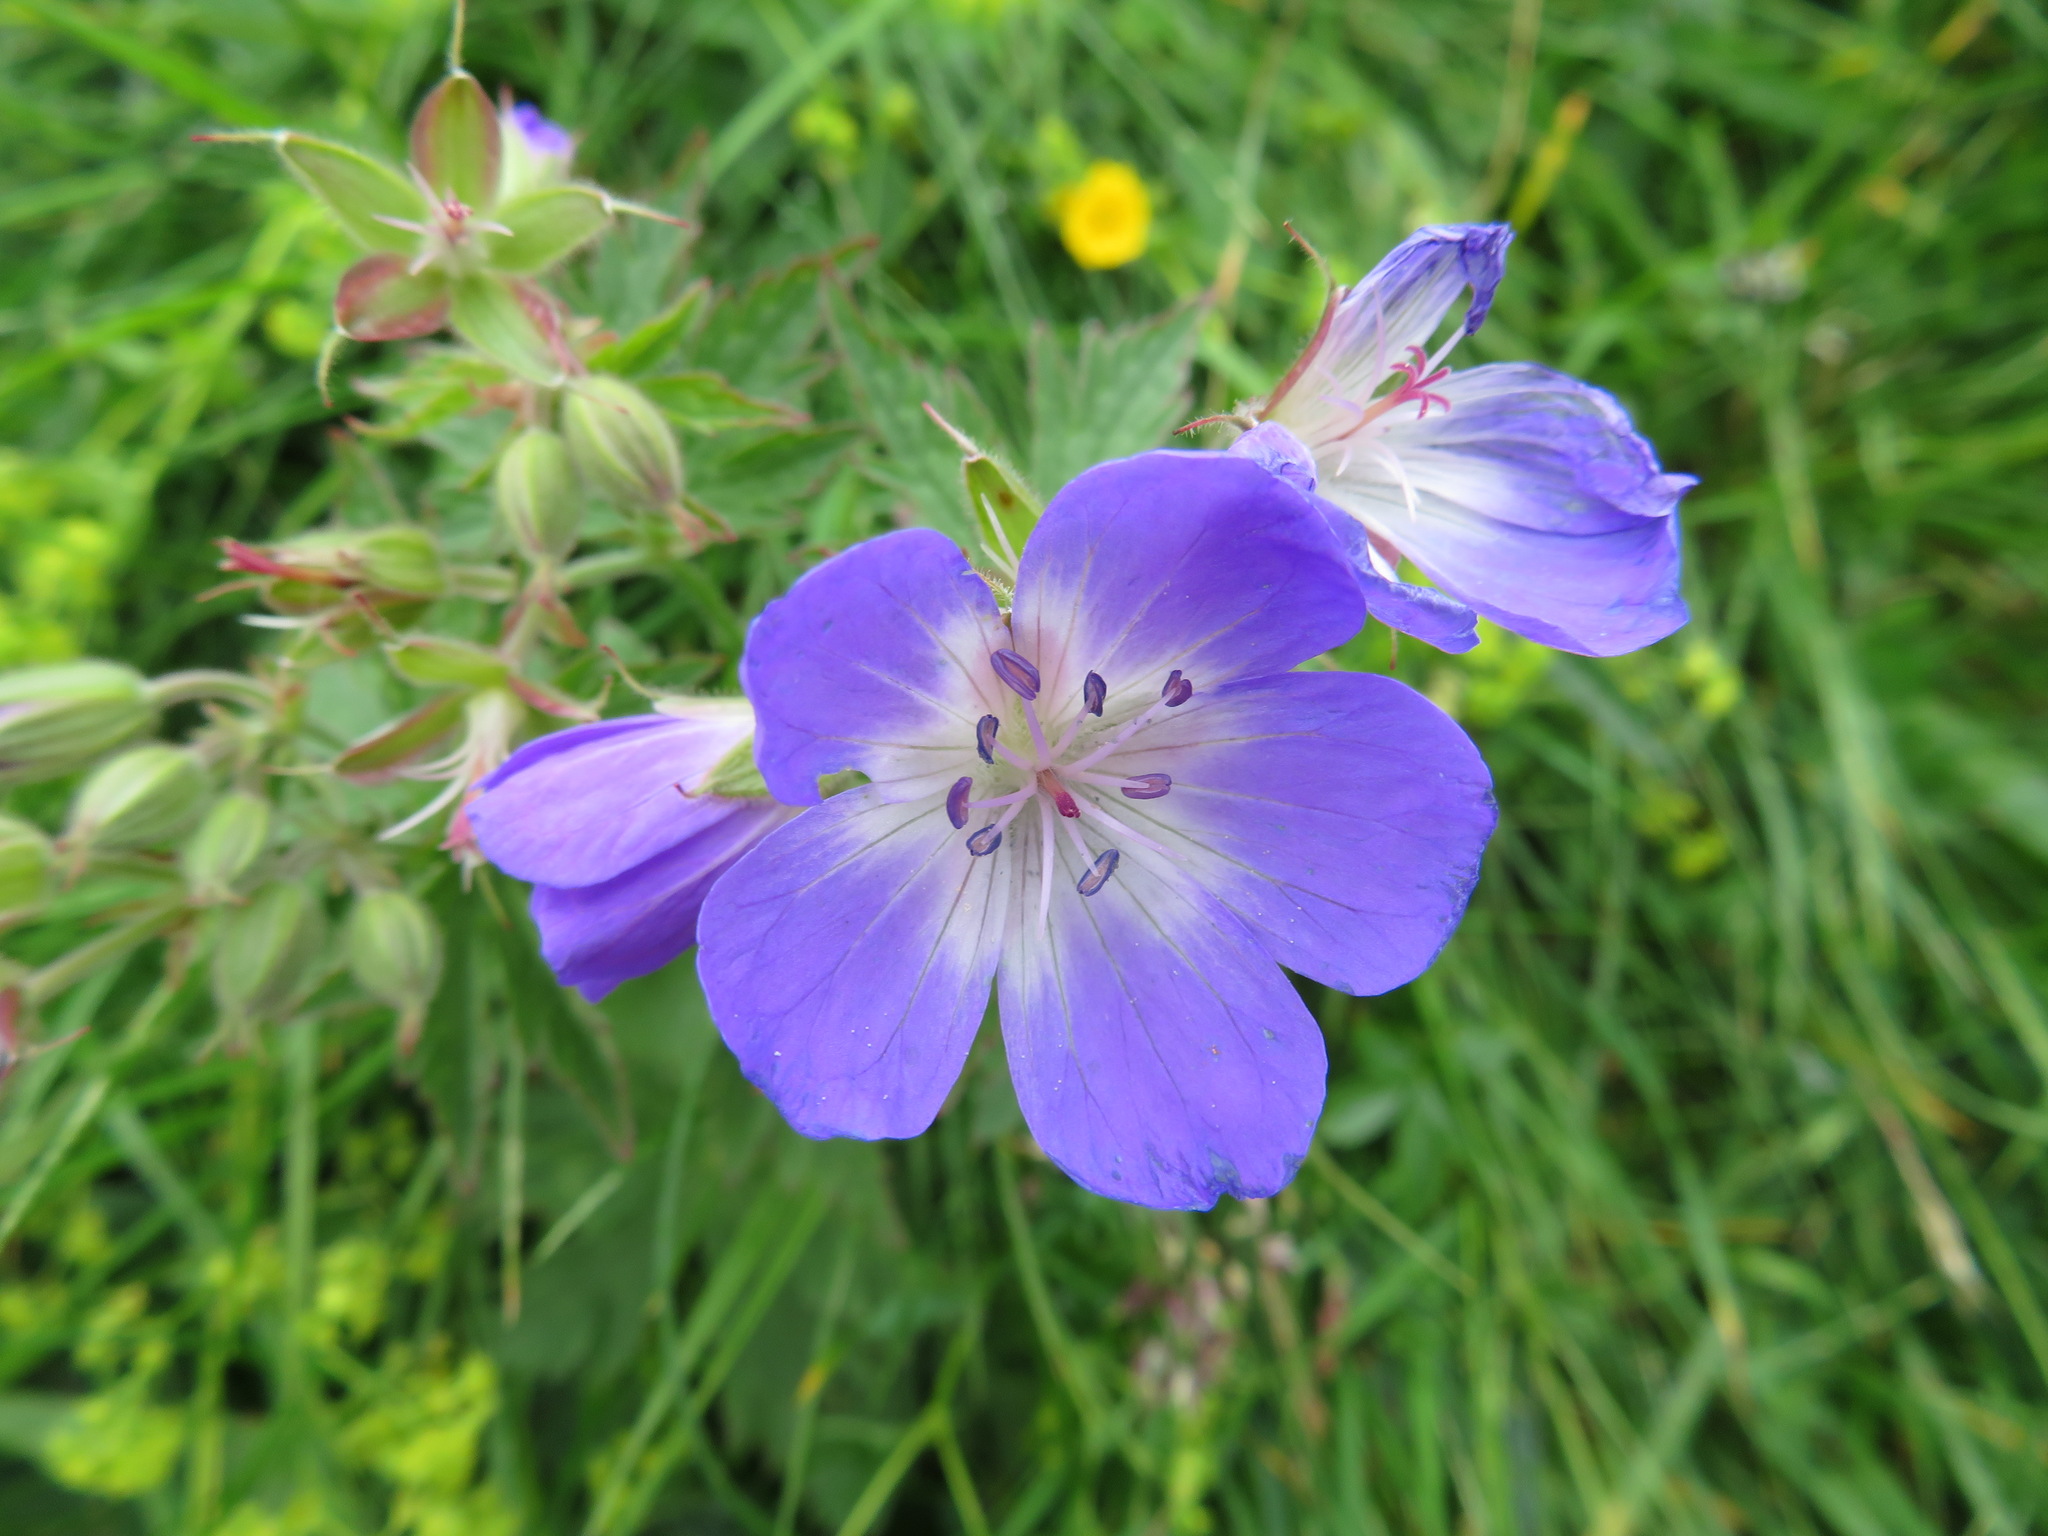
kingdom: Plantae
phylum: Tracheophyta
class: Magnoliopsida
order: Geraniales
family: Geraniaceae
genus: Geranium
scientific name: Geranium sylvaticum
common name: Wood crane's-bill
